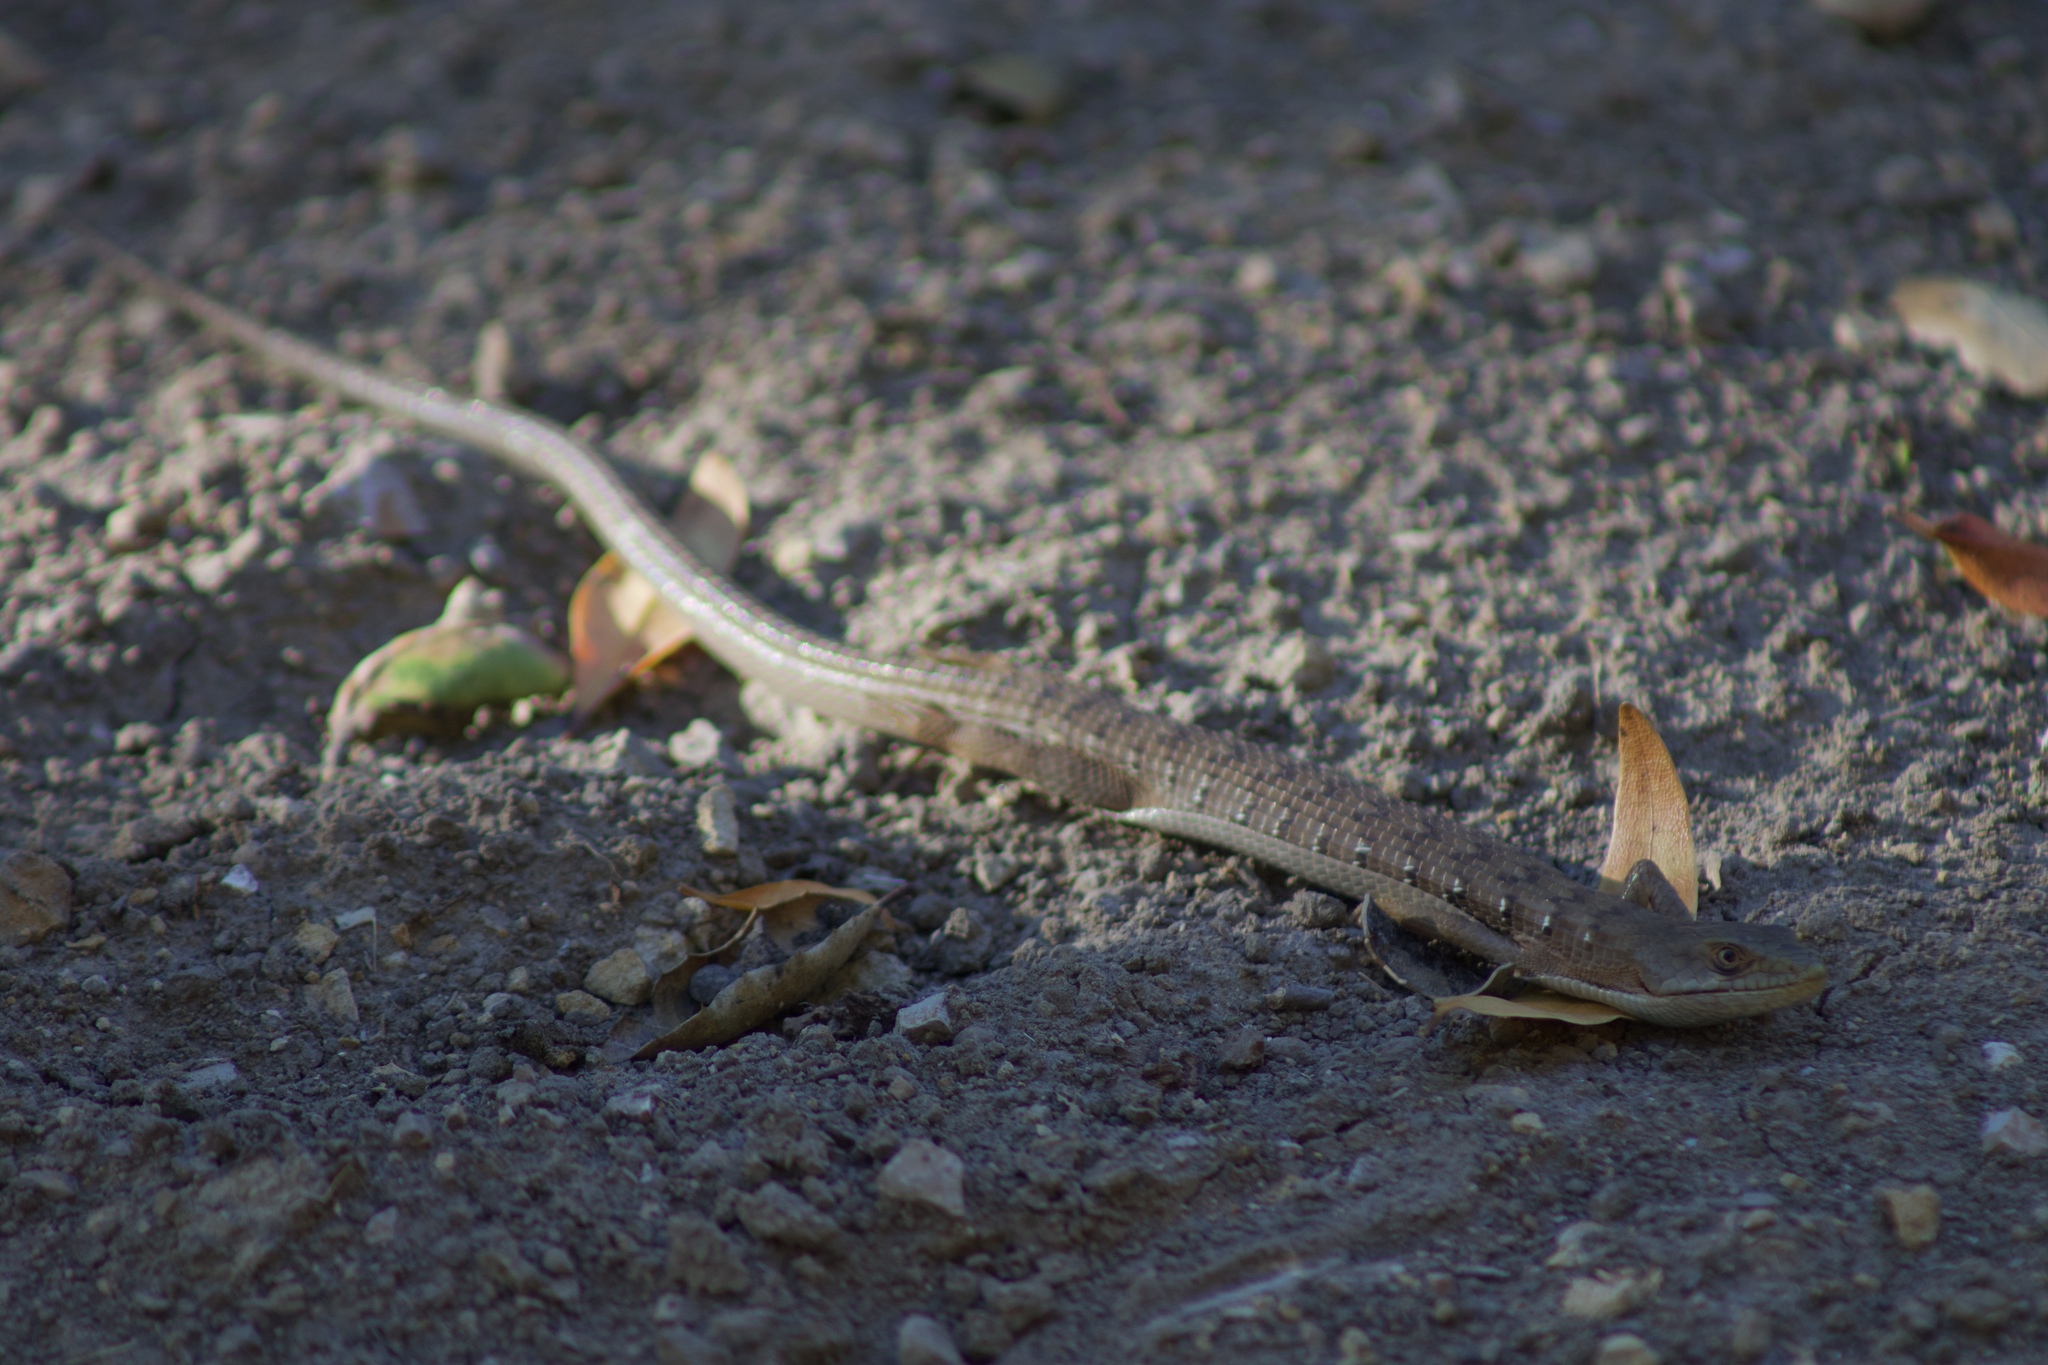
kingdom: Animalia
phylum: Chordata
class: Squamata
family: Anguidae
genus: Elgaria
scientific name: Elgaria multicarinata
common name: Southern alligator lizard
